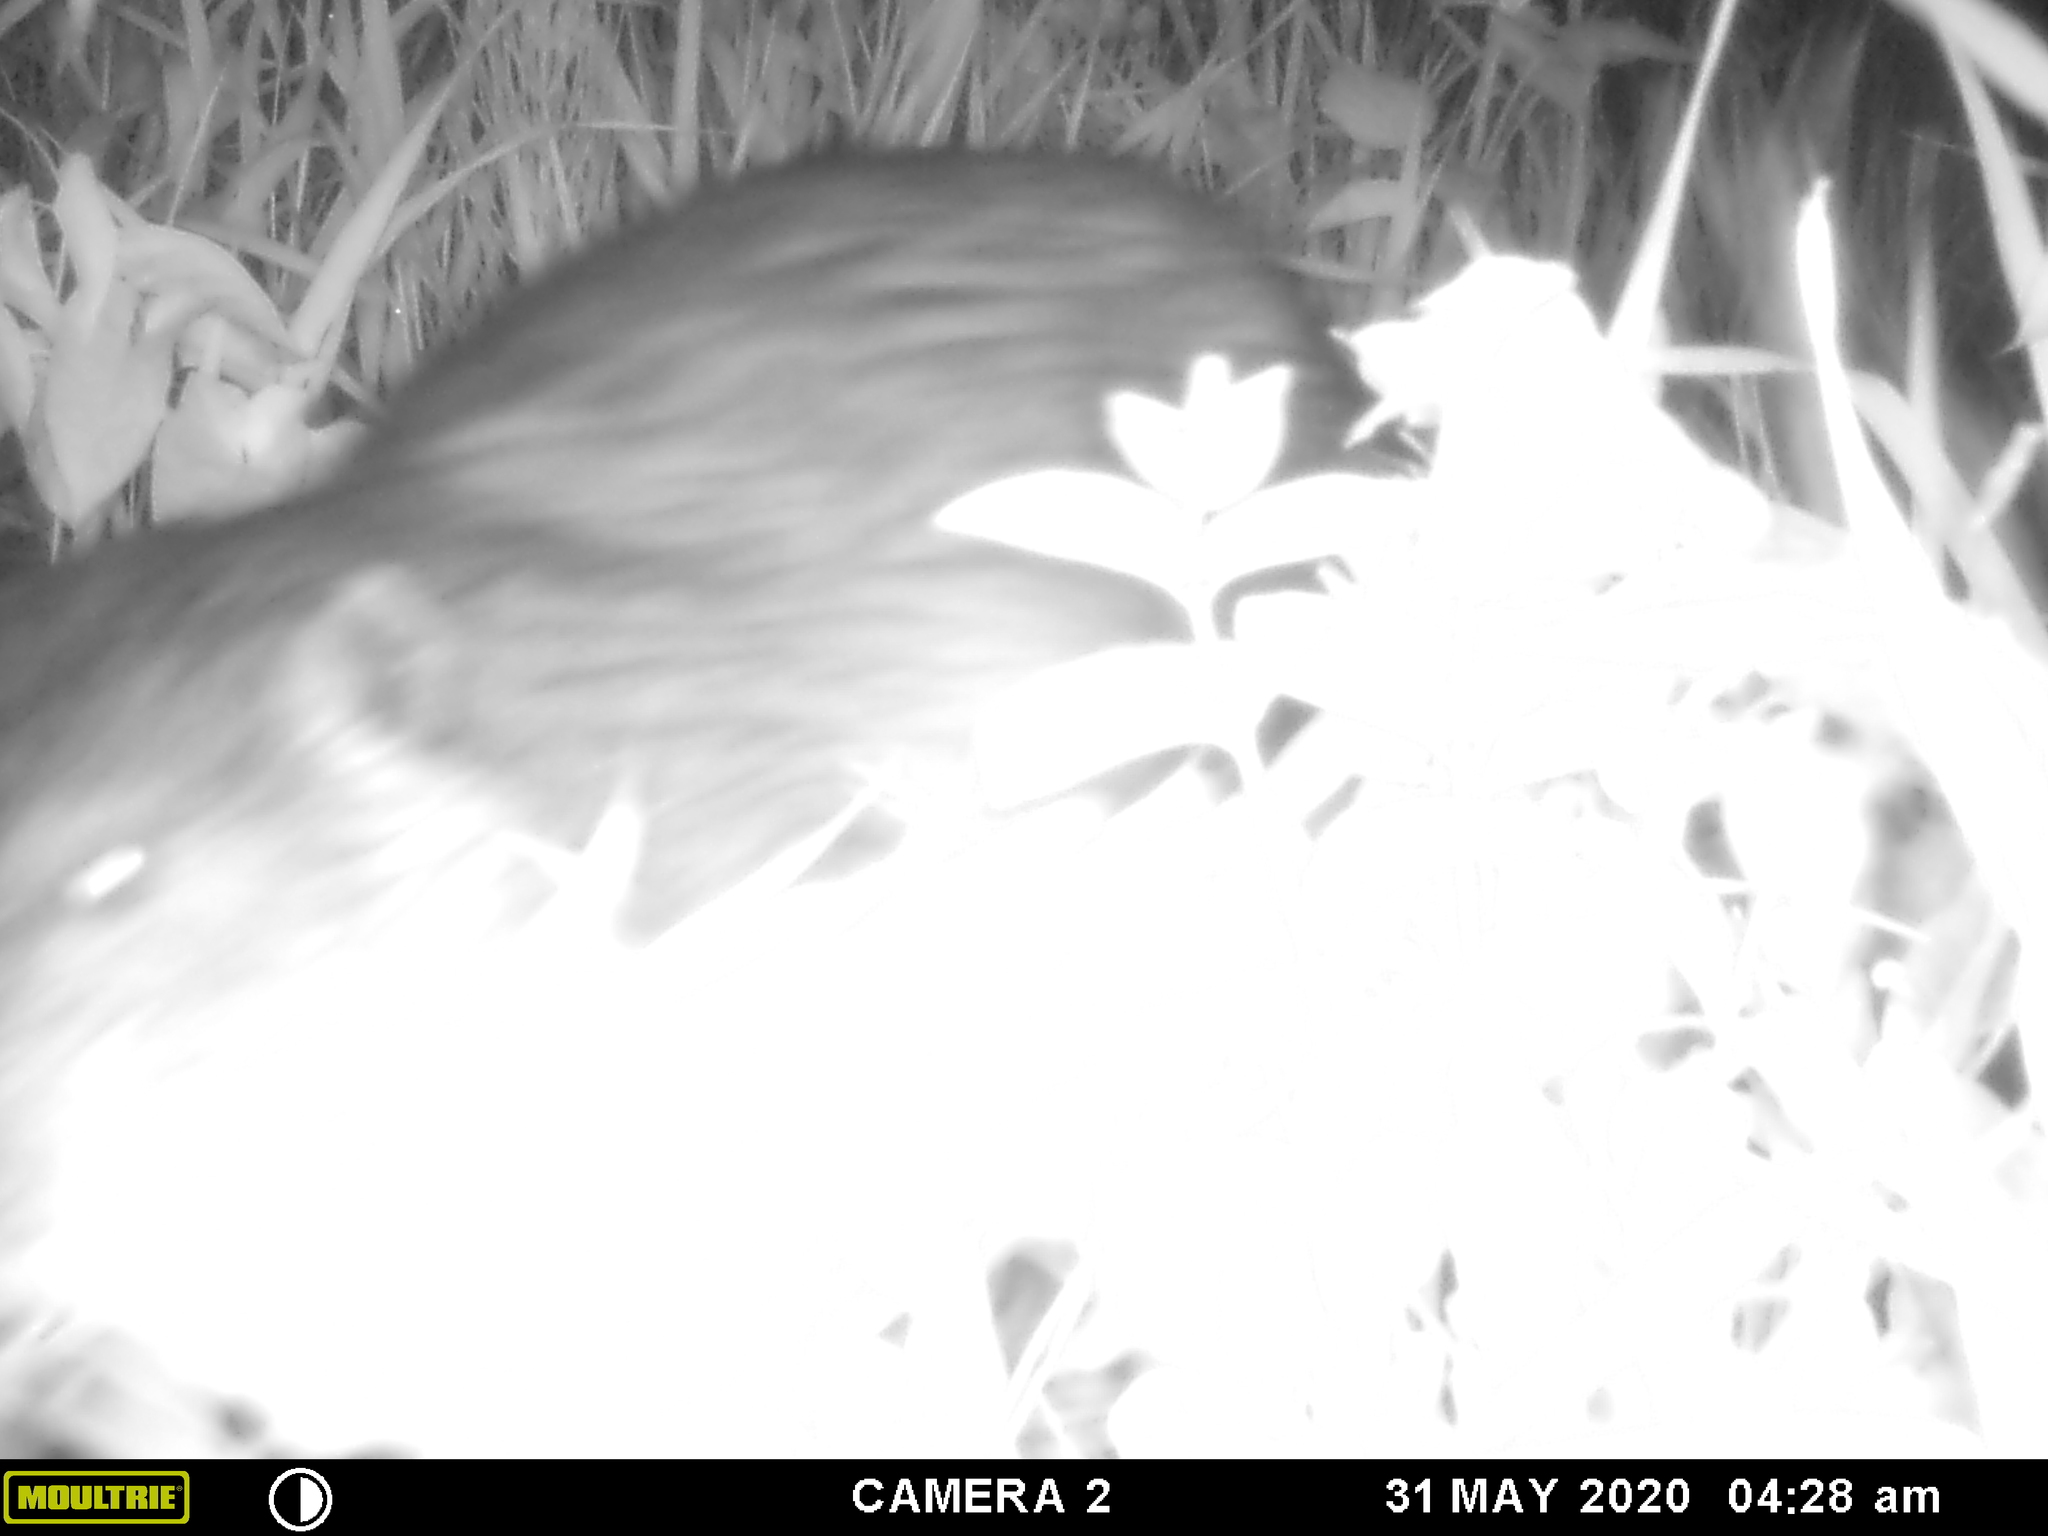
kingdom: Animalia
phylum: Chordata
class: Mammalia
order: Rodentia
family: Castoridae
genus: Castor
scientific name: Castor canadensis
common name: American beaver
